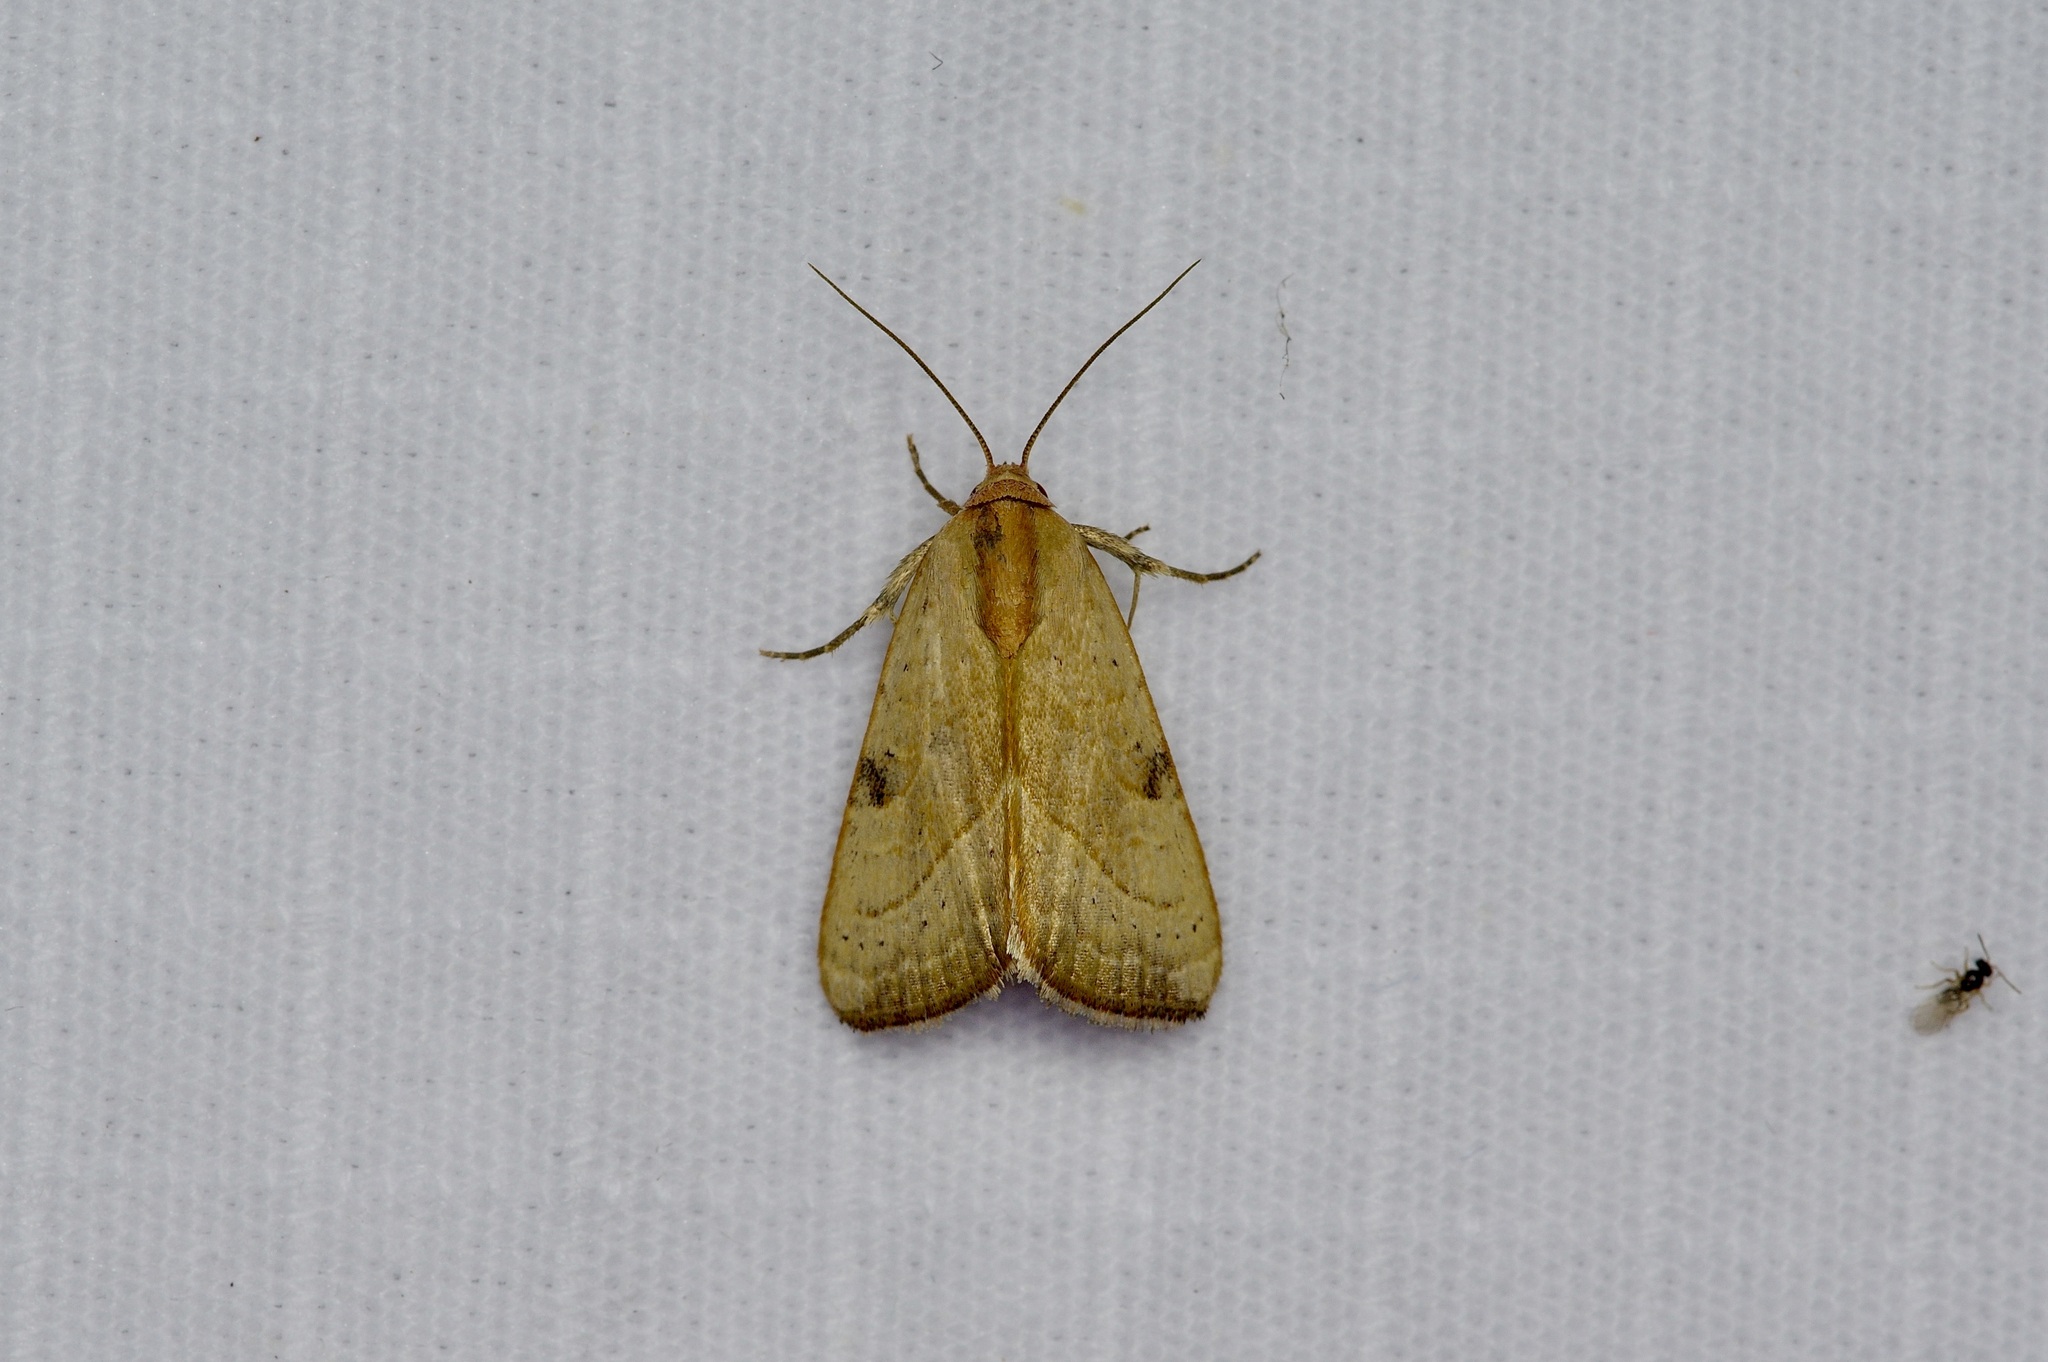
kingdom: Animalia
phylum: Arthropoda
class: Insecta
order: Lepidoptera
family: Noctuidae
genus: Galgula
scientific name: Galgula partita
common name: Wedgeling
